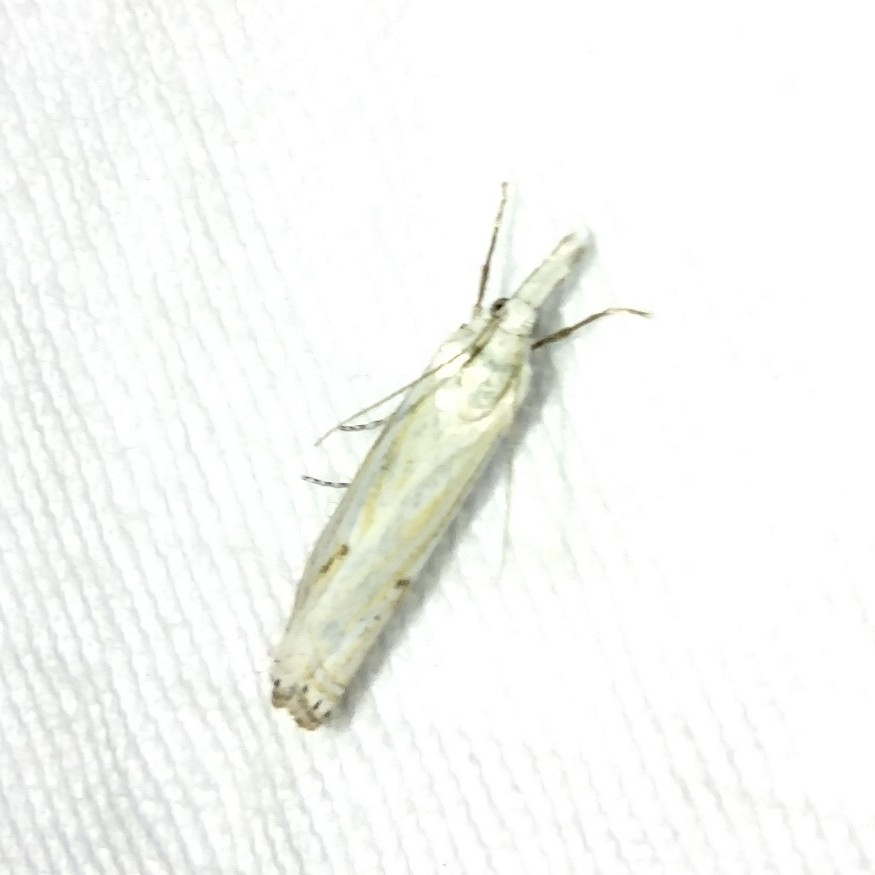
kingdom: Animalia
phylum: Arthropoda
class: Insecta
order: Lepidoptera
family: Crambidae
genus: Crambus
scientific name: Crambus nemorella
